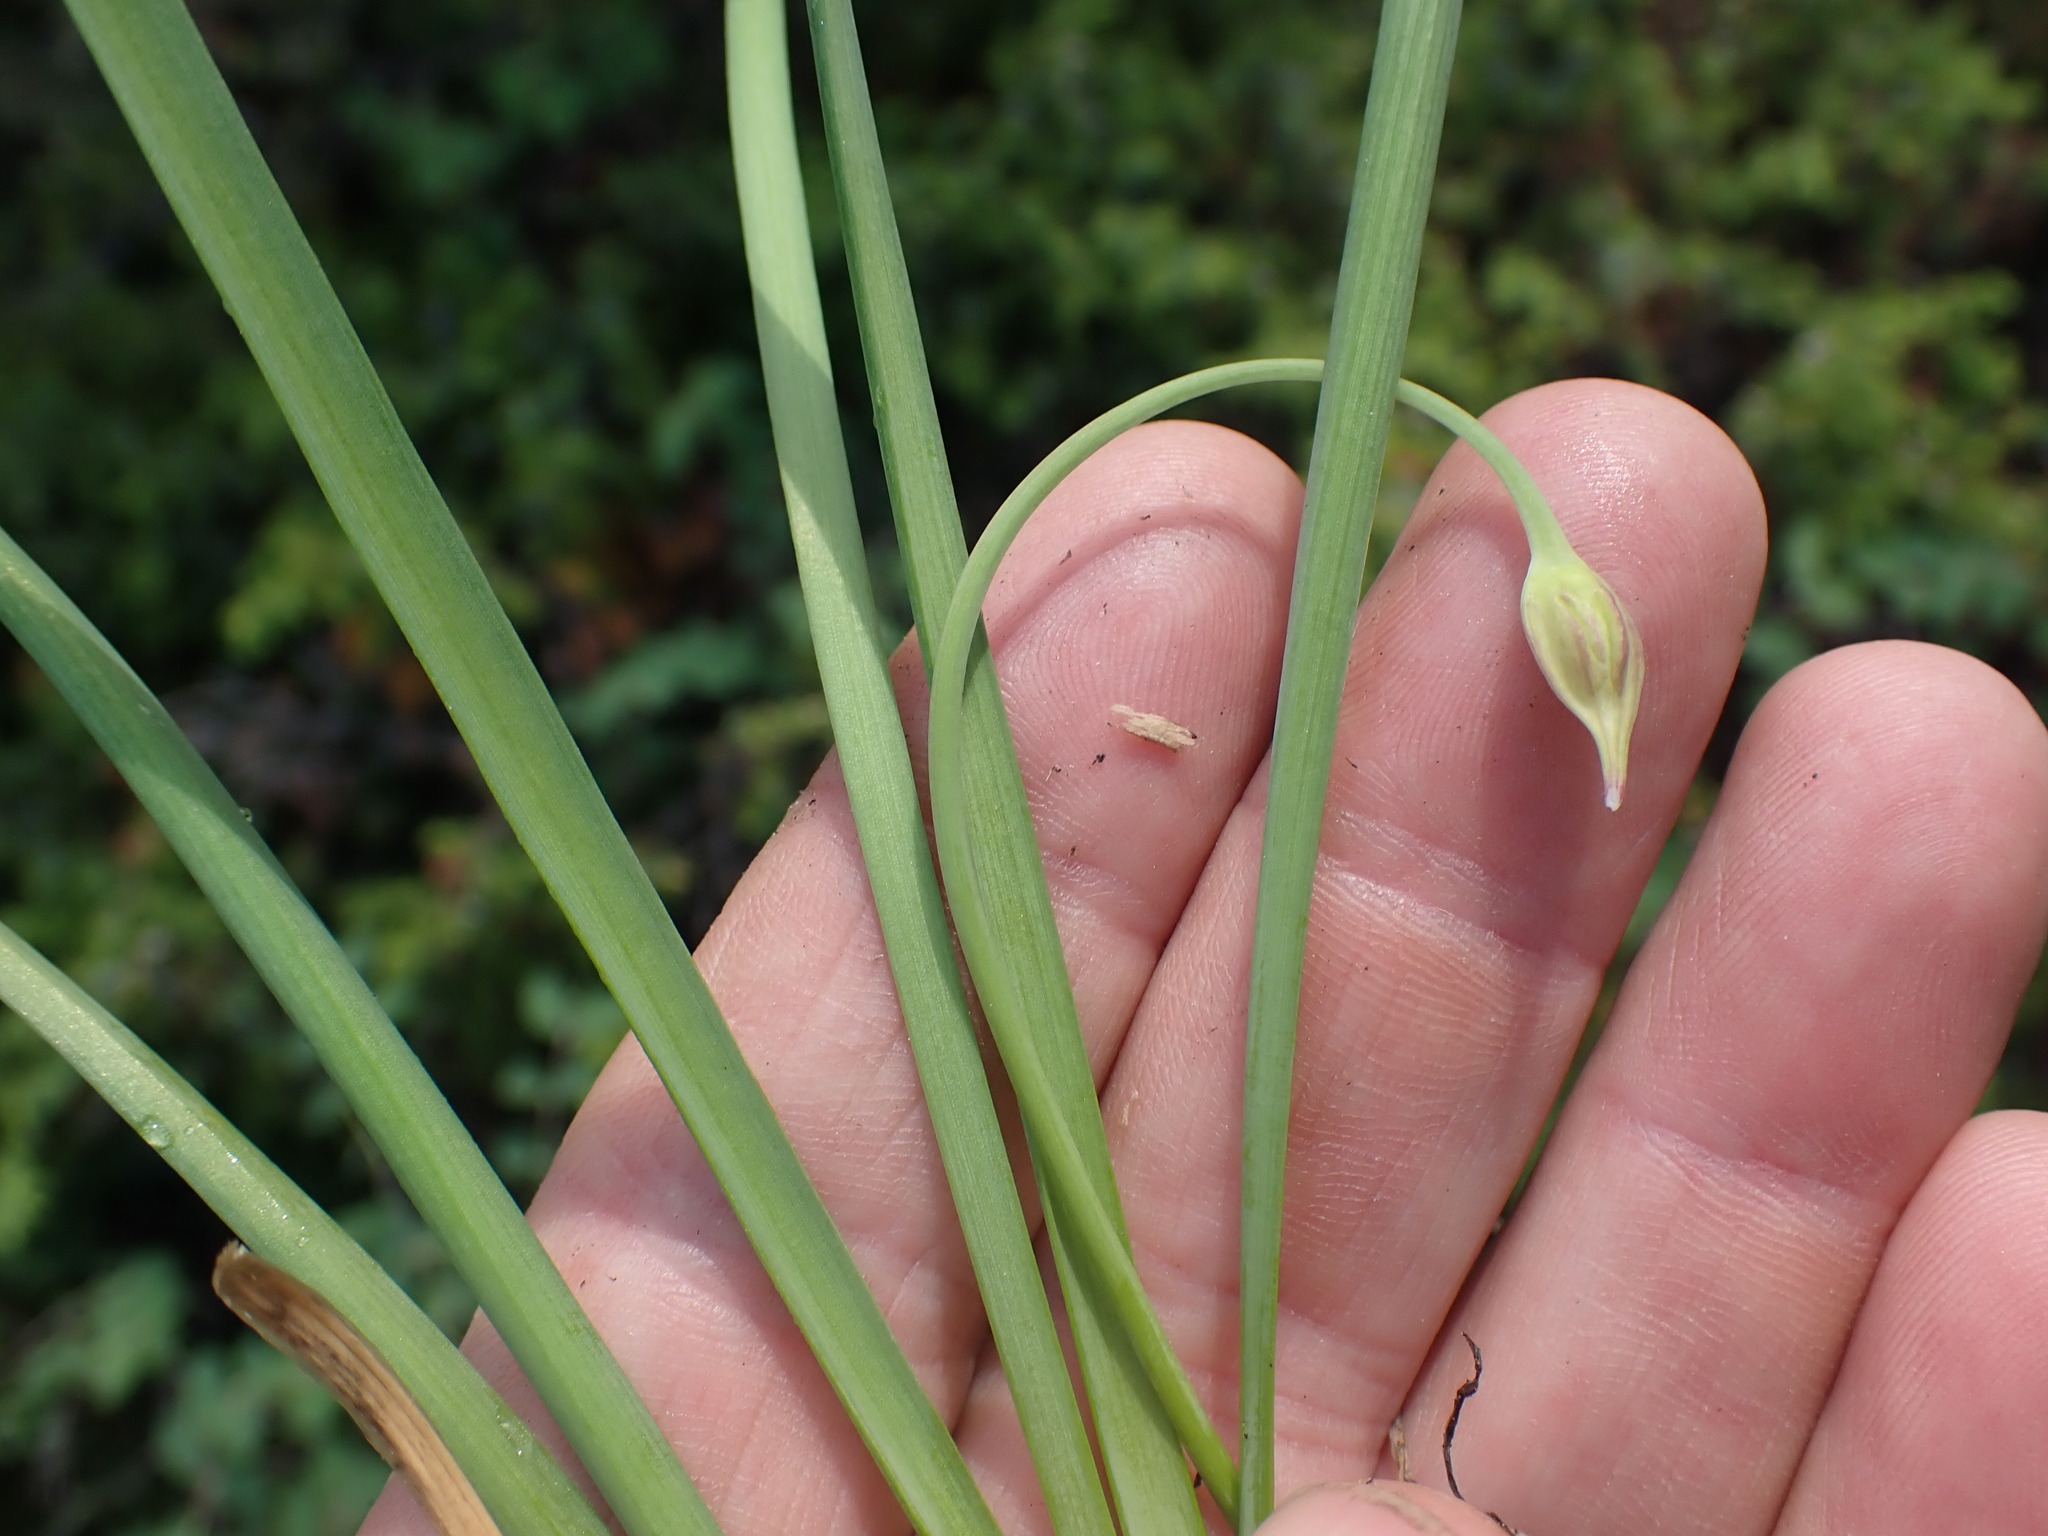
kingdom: Plantae
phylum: Tracheophyta
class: Liliopsida
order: Asparagales
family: Amaryllidaceae
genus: Allium
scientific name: Allium cernuum
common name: Nodding onion
